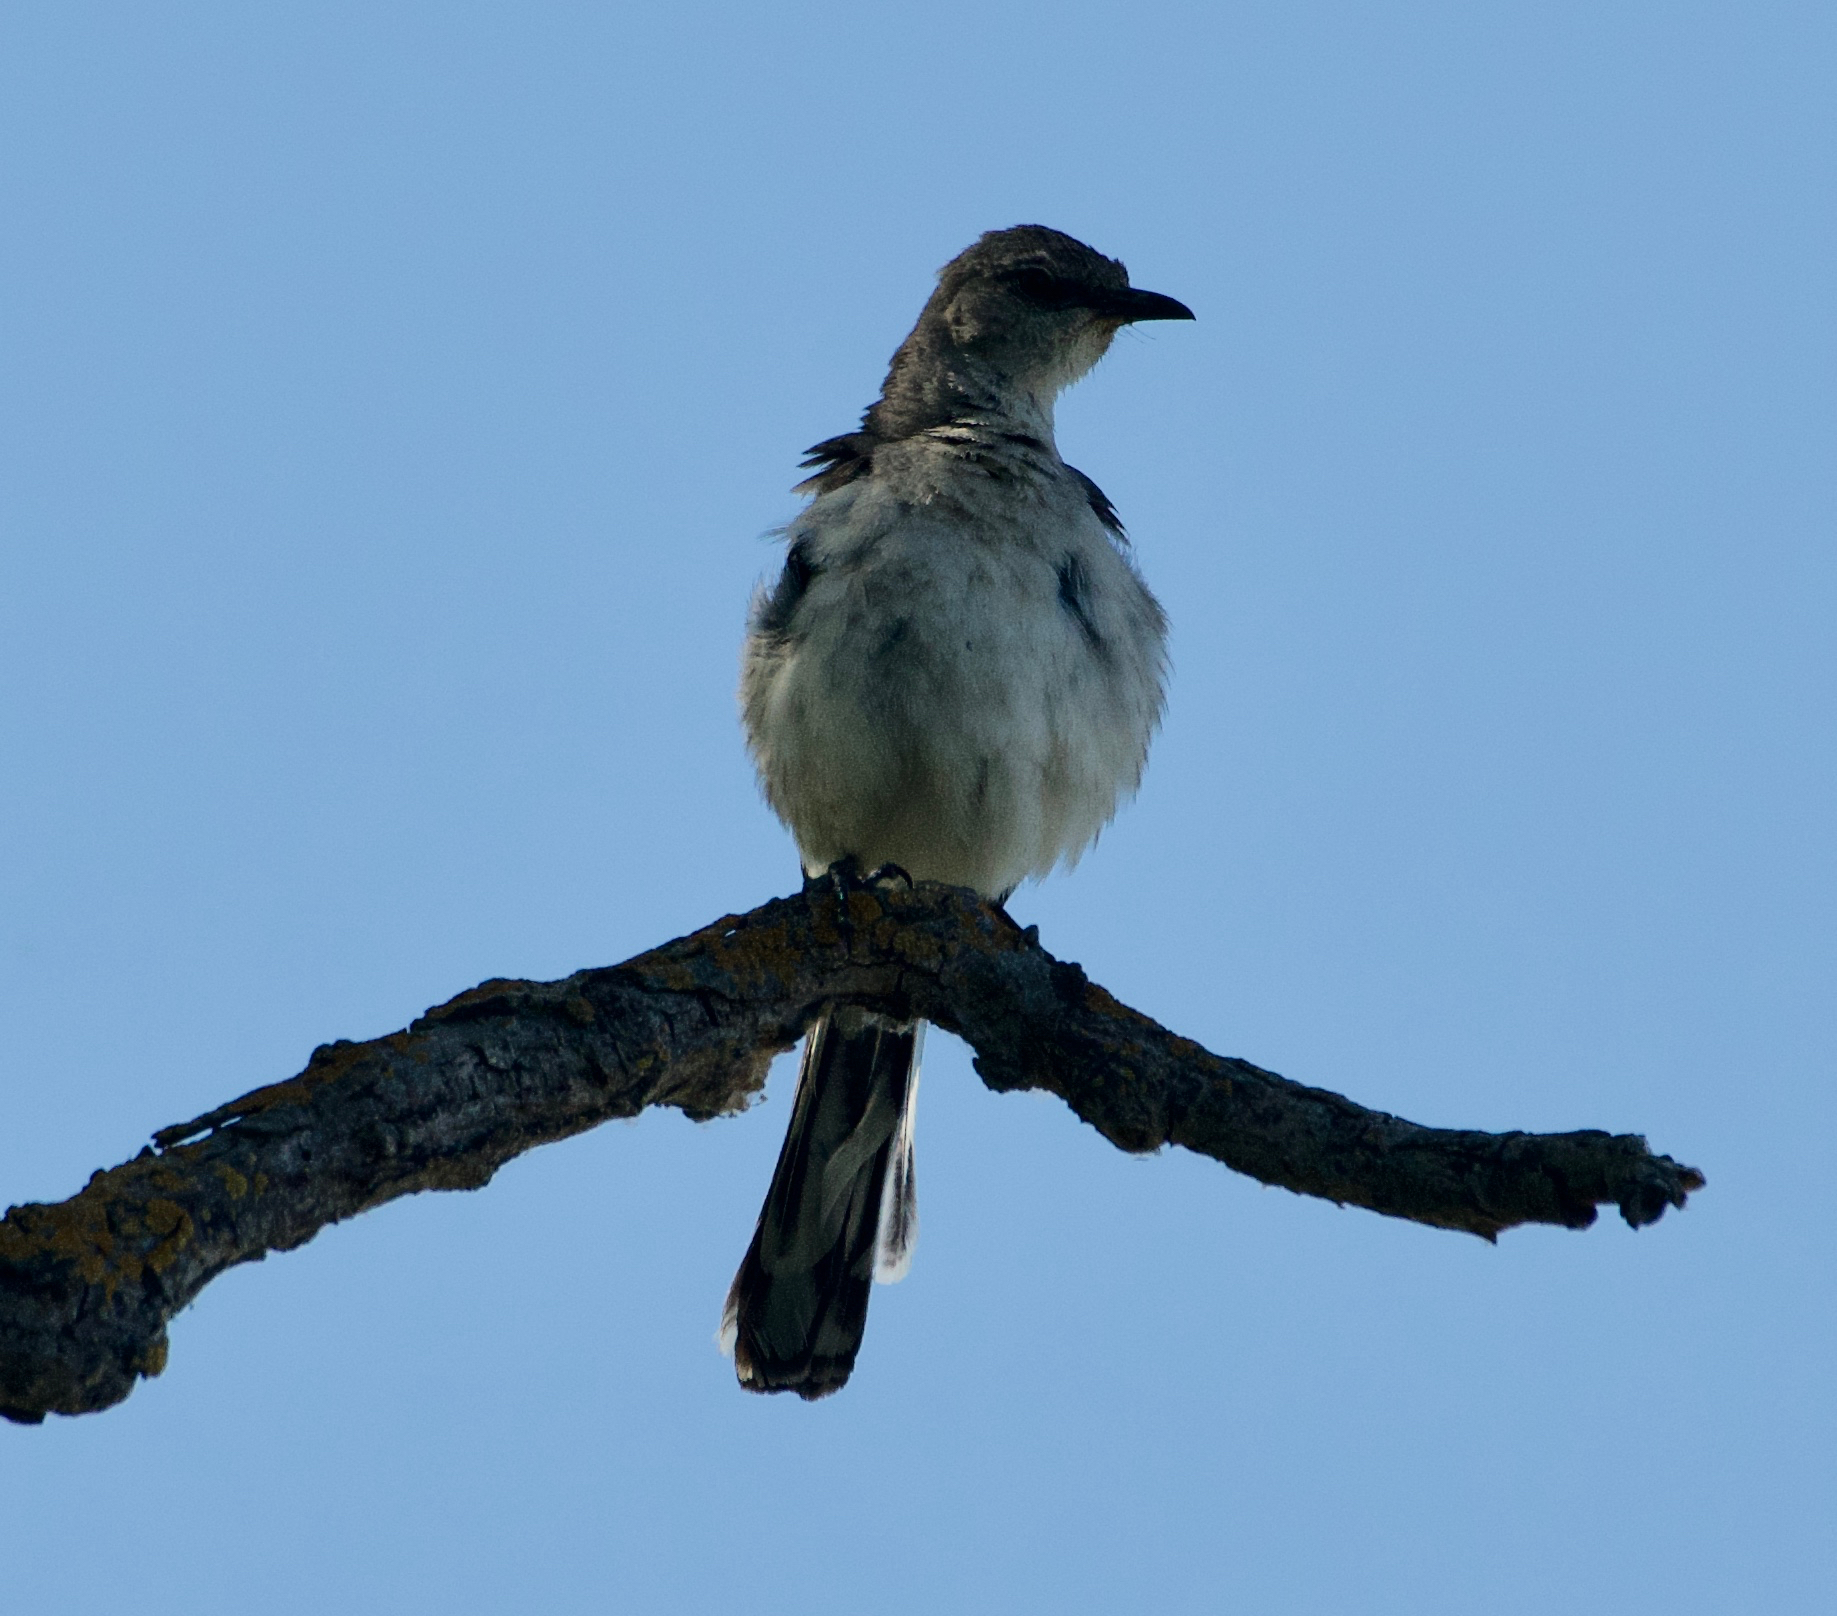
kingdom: Animalia
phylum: Chordata
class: Aves
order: Passeriformes
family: Mimidae
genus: Mimus
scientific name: Mimus polyglottos
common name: Northern mockingbird
